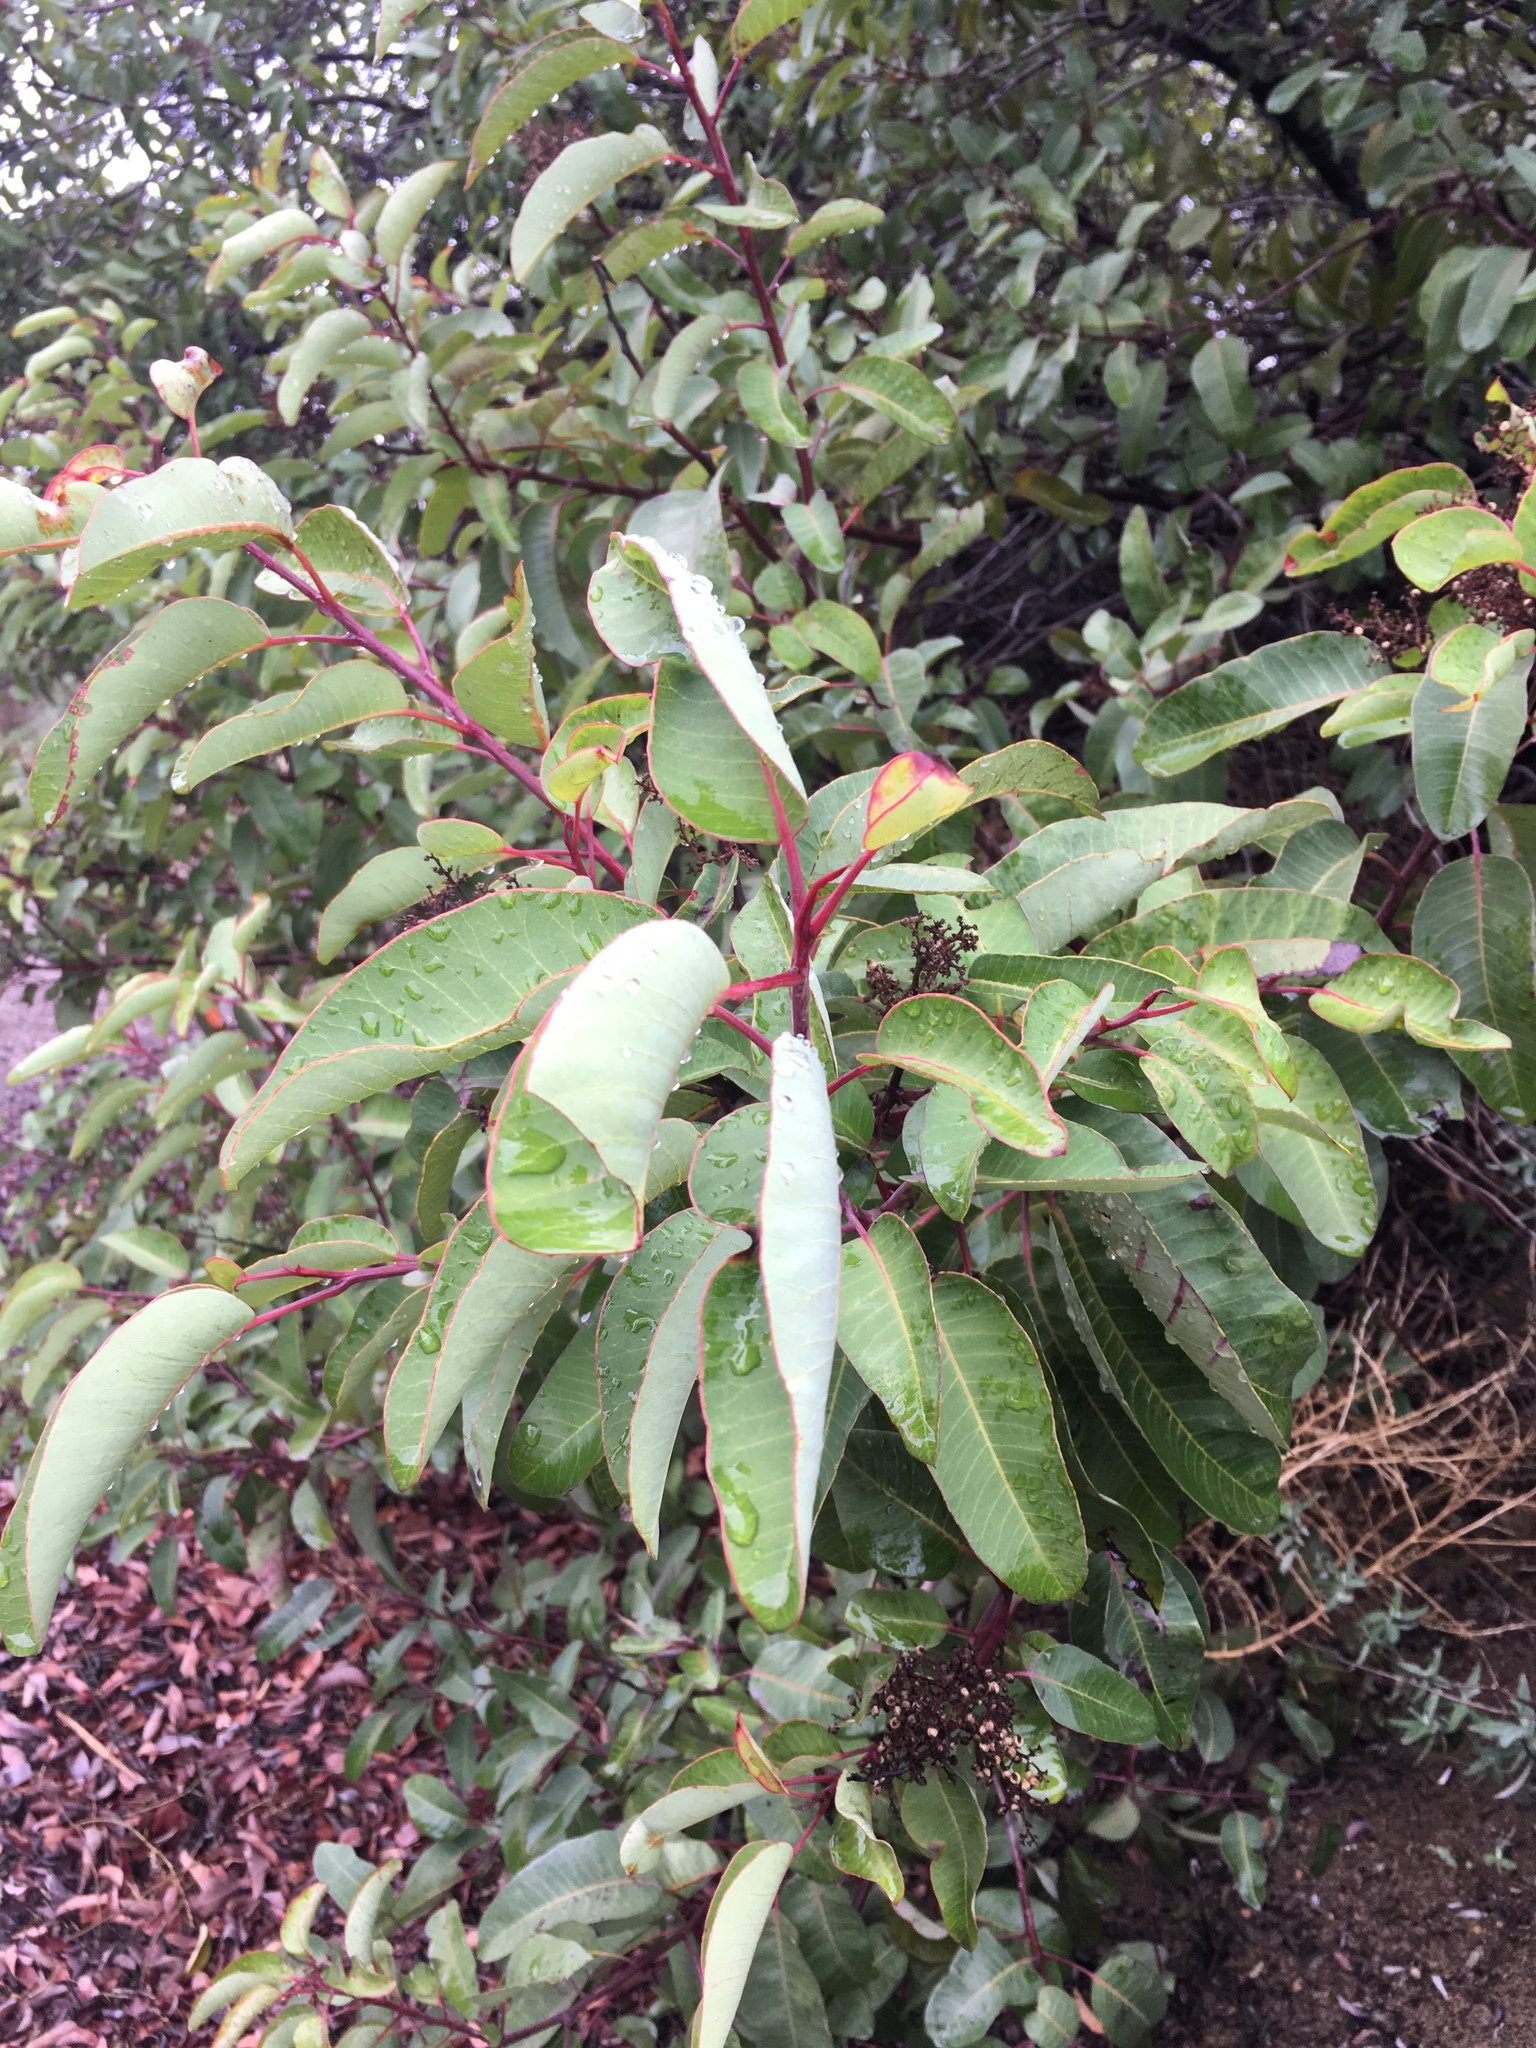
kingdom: Plantae
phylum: Tracheophyta
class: Magnoliopsida
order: Sapindales
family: Anacardiaceae
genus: Malosma
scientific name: Malosma laurina
